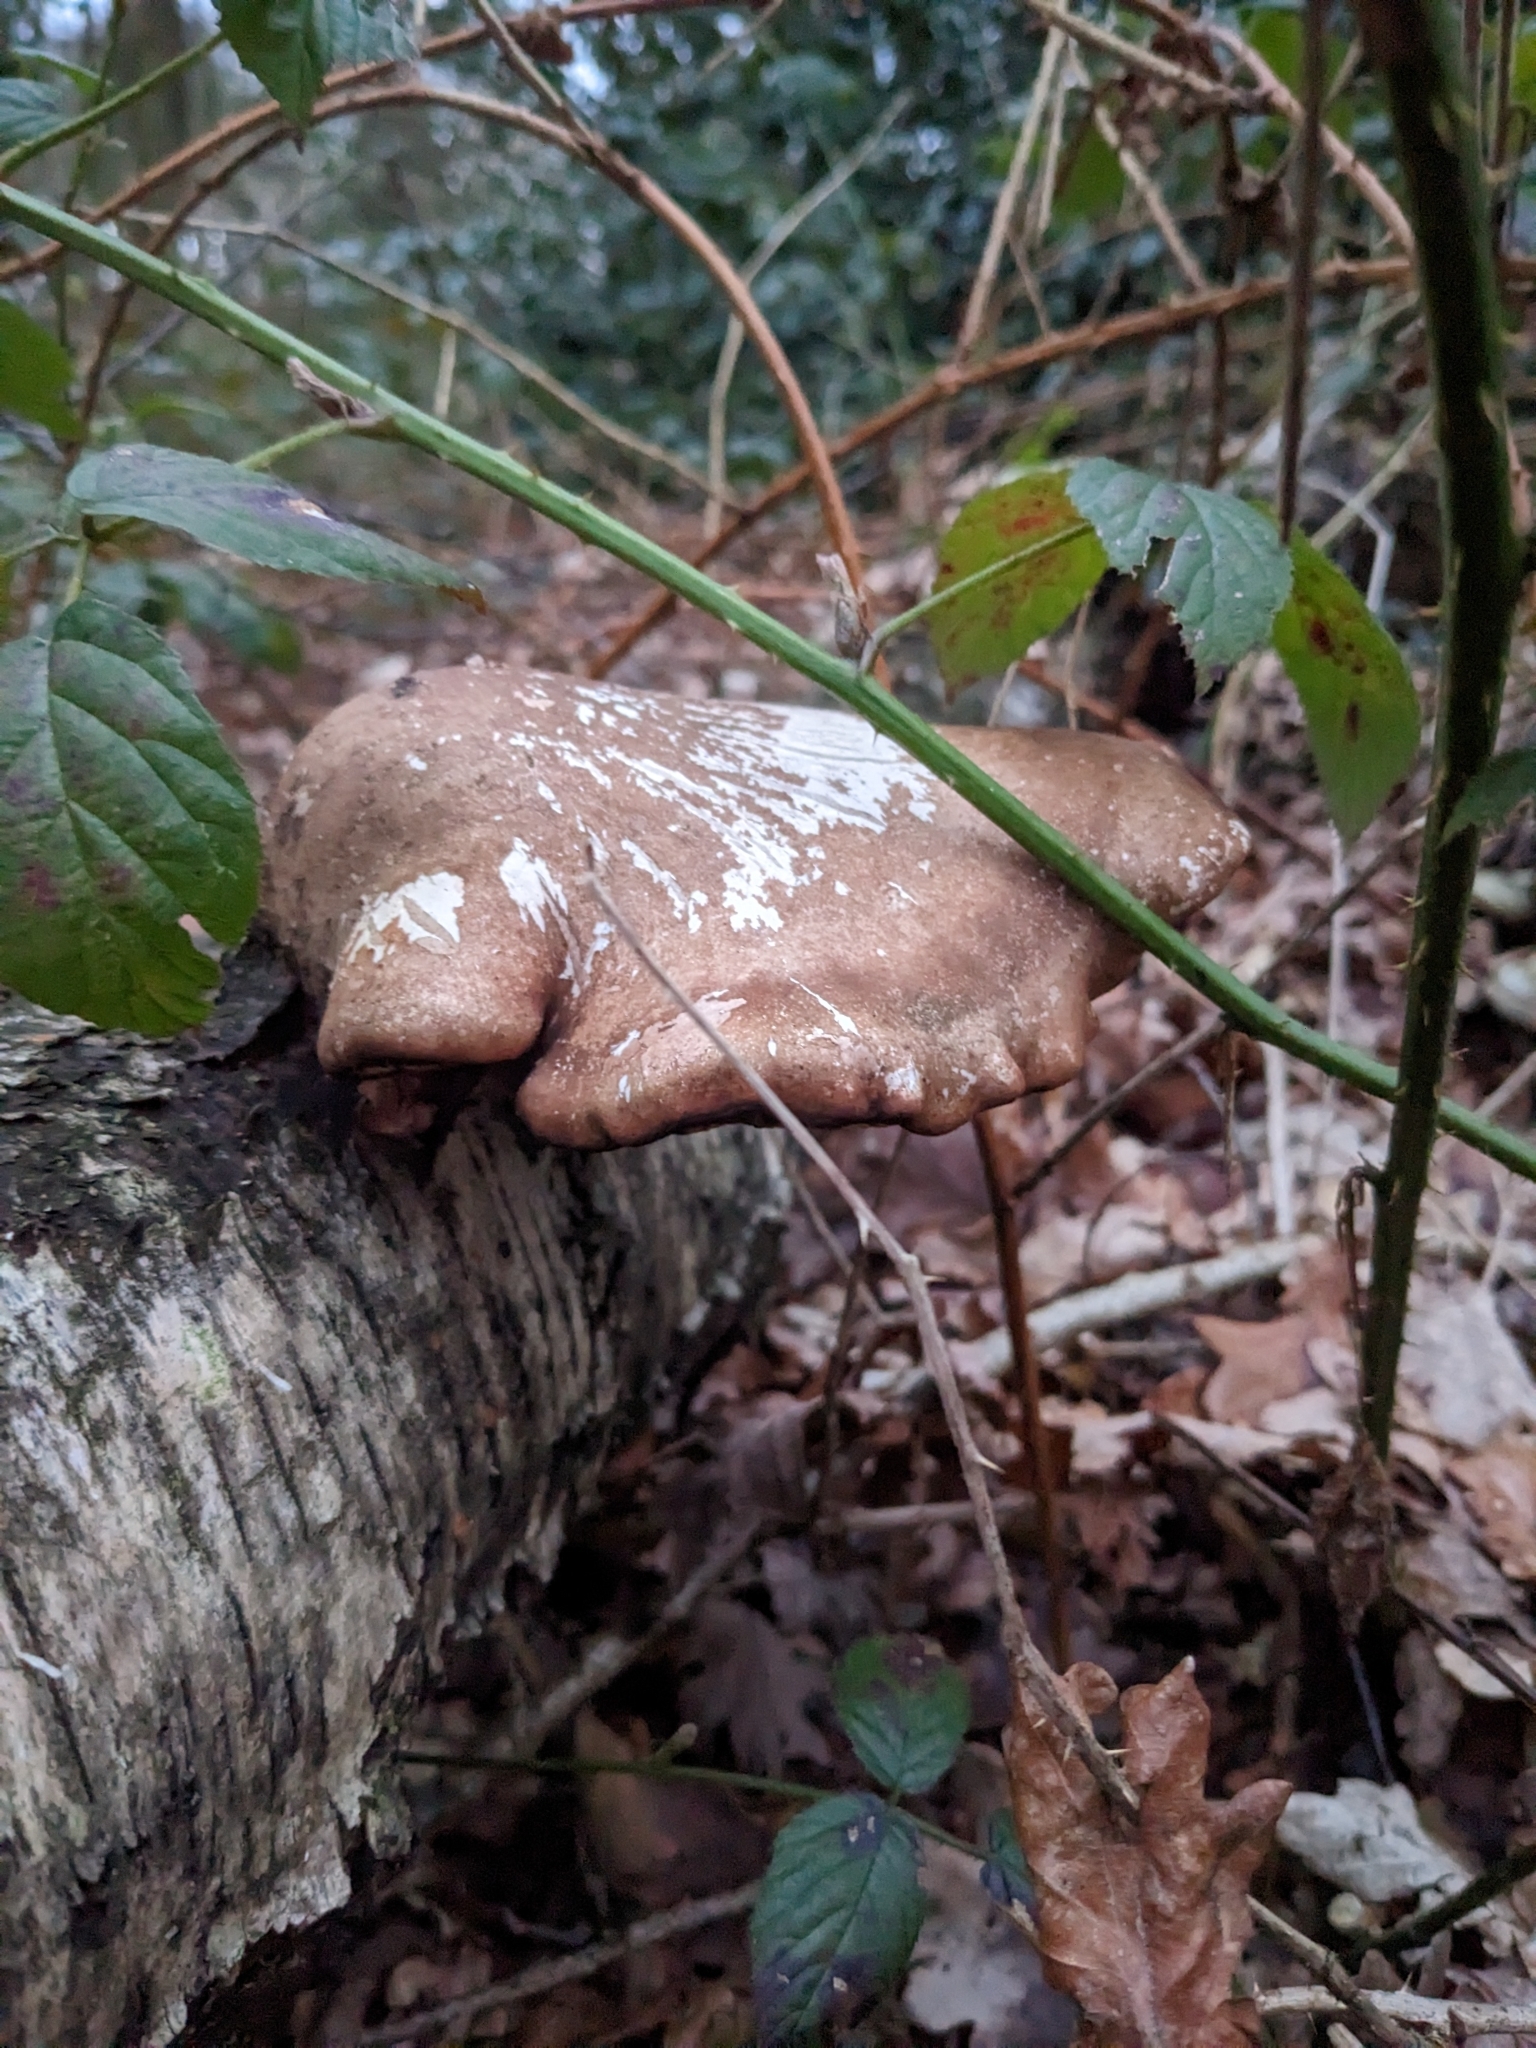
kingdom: Fungi
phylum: Basidiomycota
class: Agaricomycetes
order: Polyporales
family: Fomitopsidaceae
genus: Fomitopsis
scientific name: Fomitopsis betulina
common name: Birch polypore
